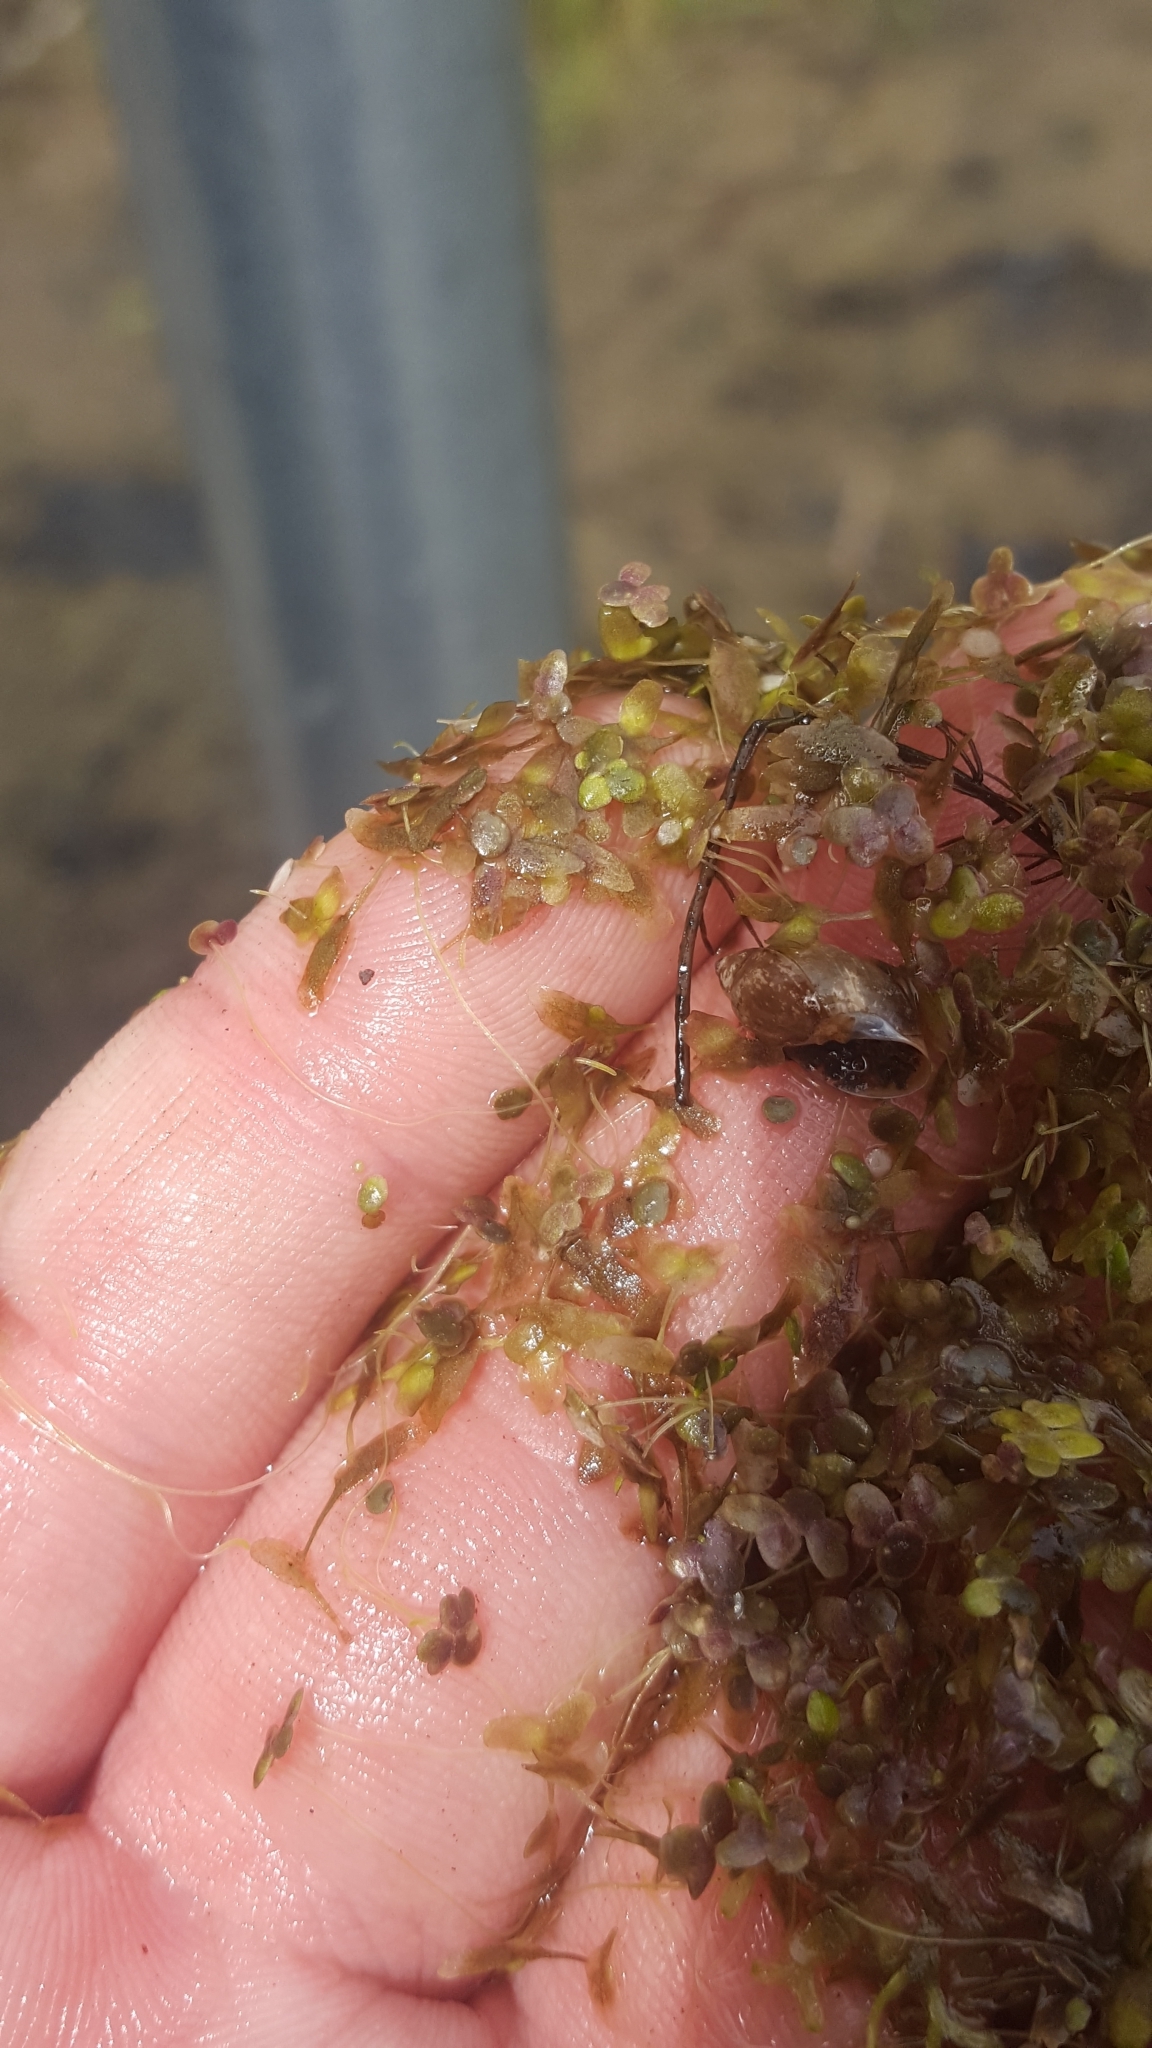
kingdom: Plantae
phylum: Tracheophyta
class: Liliopsida
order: Alismatales
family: Araceae
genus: Lemna
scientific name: Lemna trisulca
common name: Ivy-leaved duckweed
